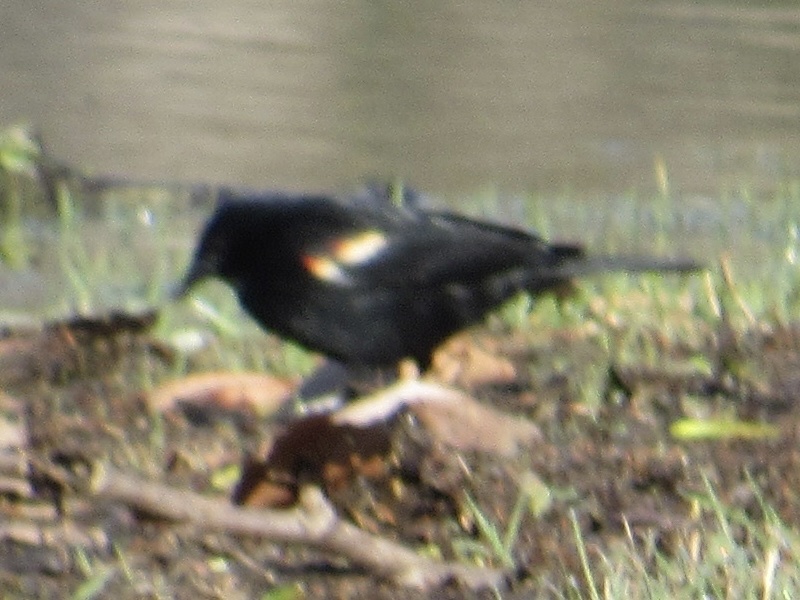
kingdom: Animalia
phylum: Chordata
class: Aves
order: Passeriformes
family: Icteridae
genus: Agelaius
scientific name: Agelaius phoeniceus
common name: Red-winged blackbird
